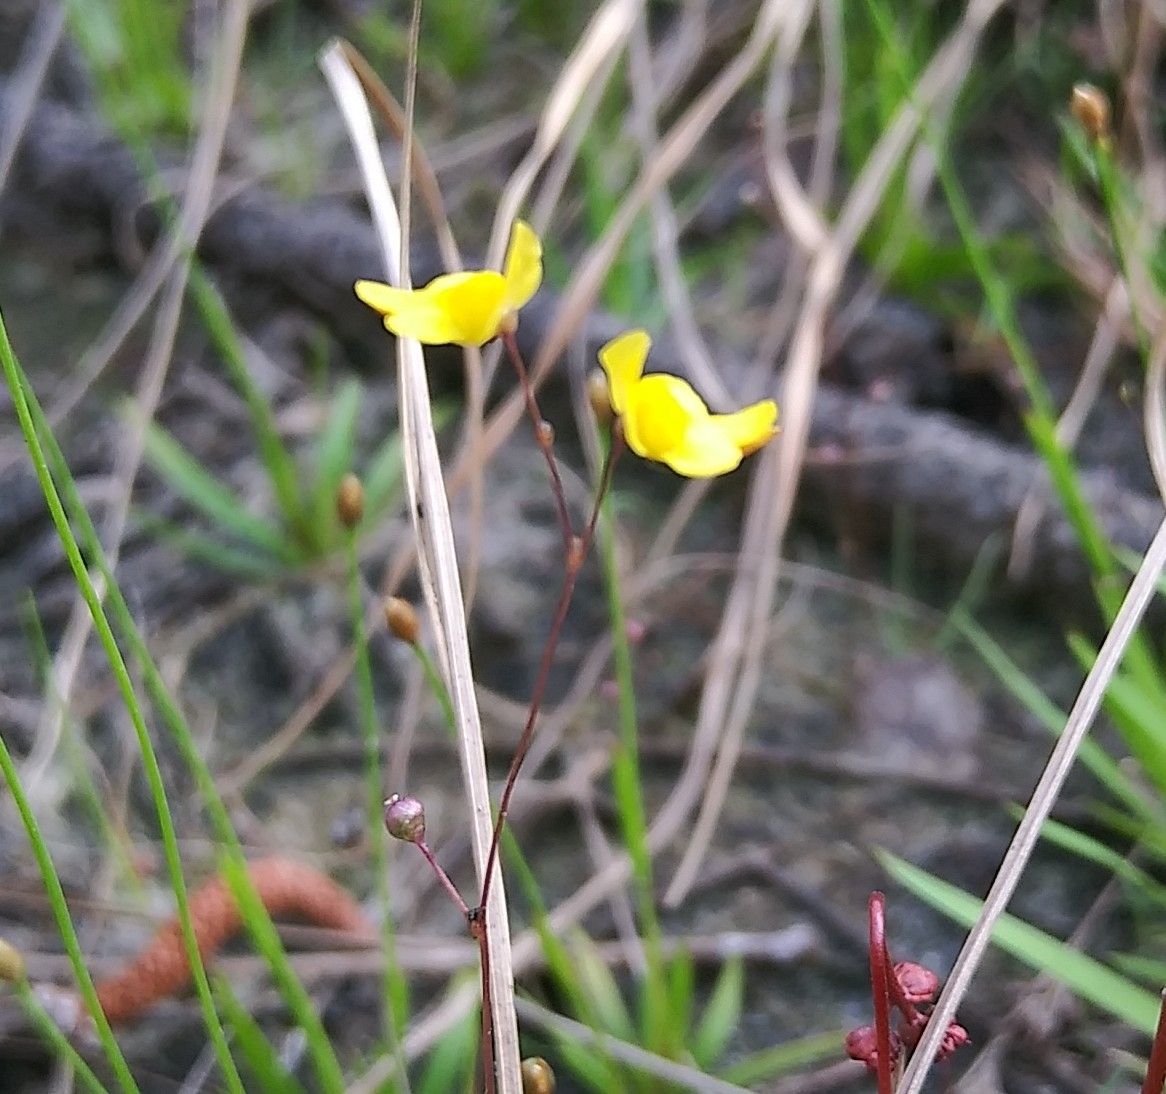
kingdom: Plantae
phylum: Tracheophyta
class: Magnoliopsida
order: Lamiales
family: Lentibulariaceae
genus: Utricularia
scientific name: Utricularia subulata
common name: Tiny bladderwort
